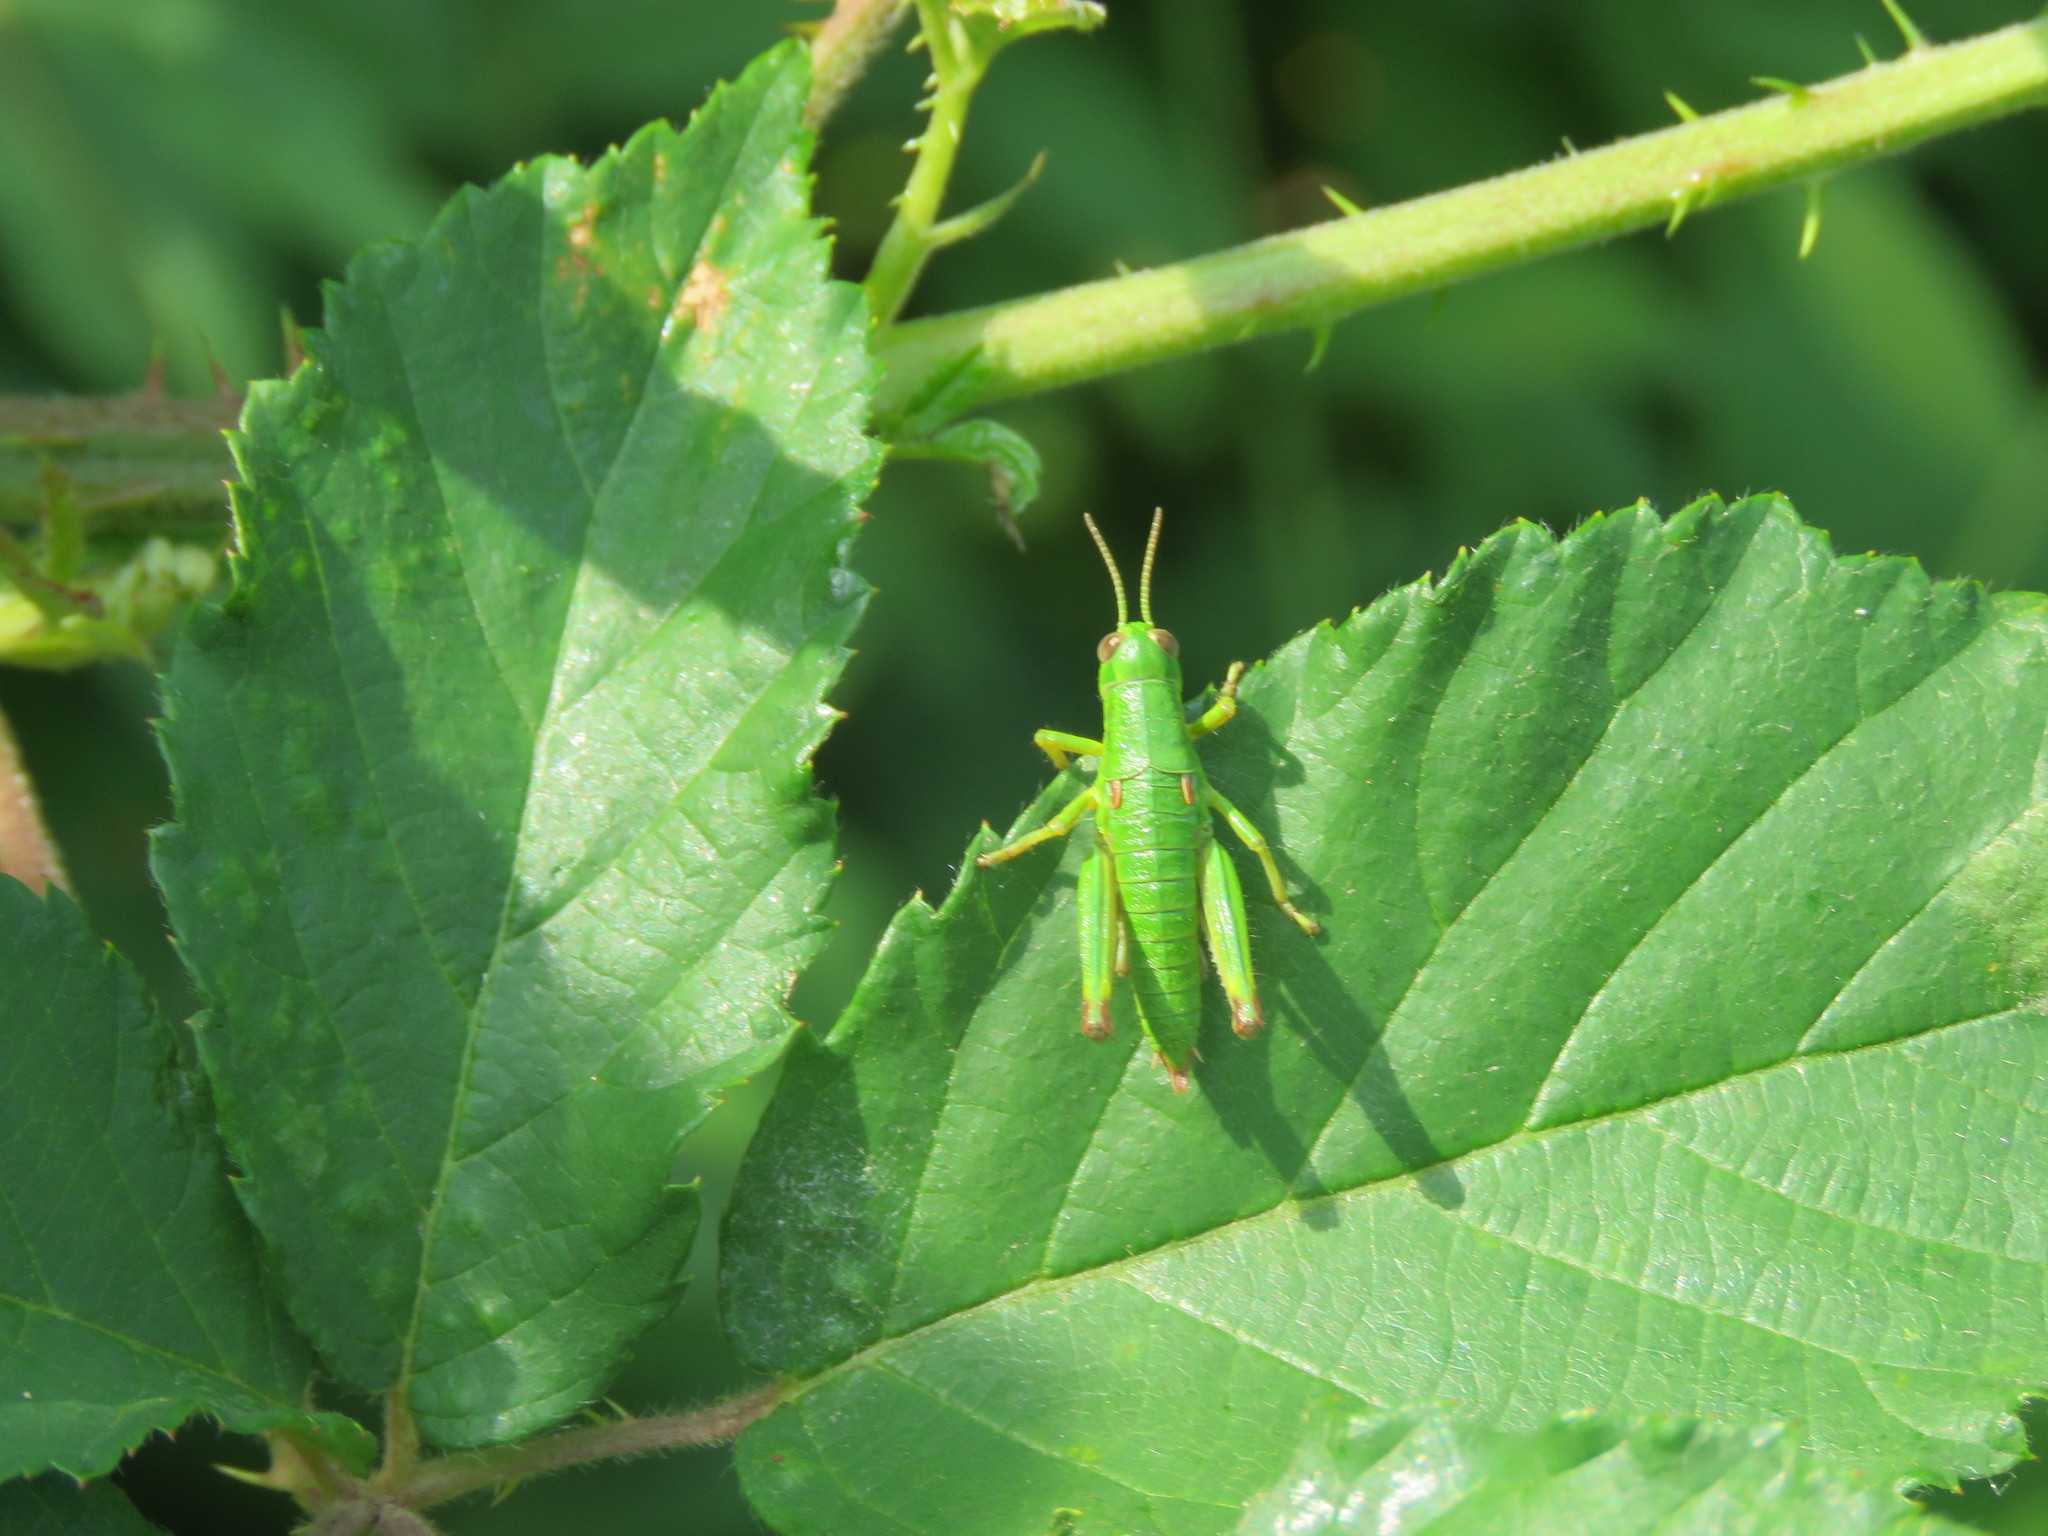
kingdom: Animalia
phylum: Arthropoda
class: Insecta
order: Orthoptera
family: Acrididae
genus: Odontopodisma
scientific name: Odontopodisma decipiens
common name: Cheating mountain grasshopper
